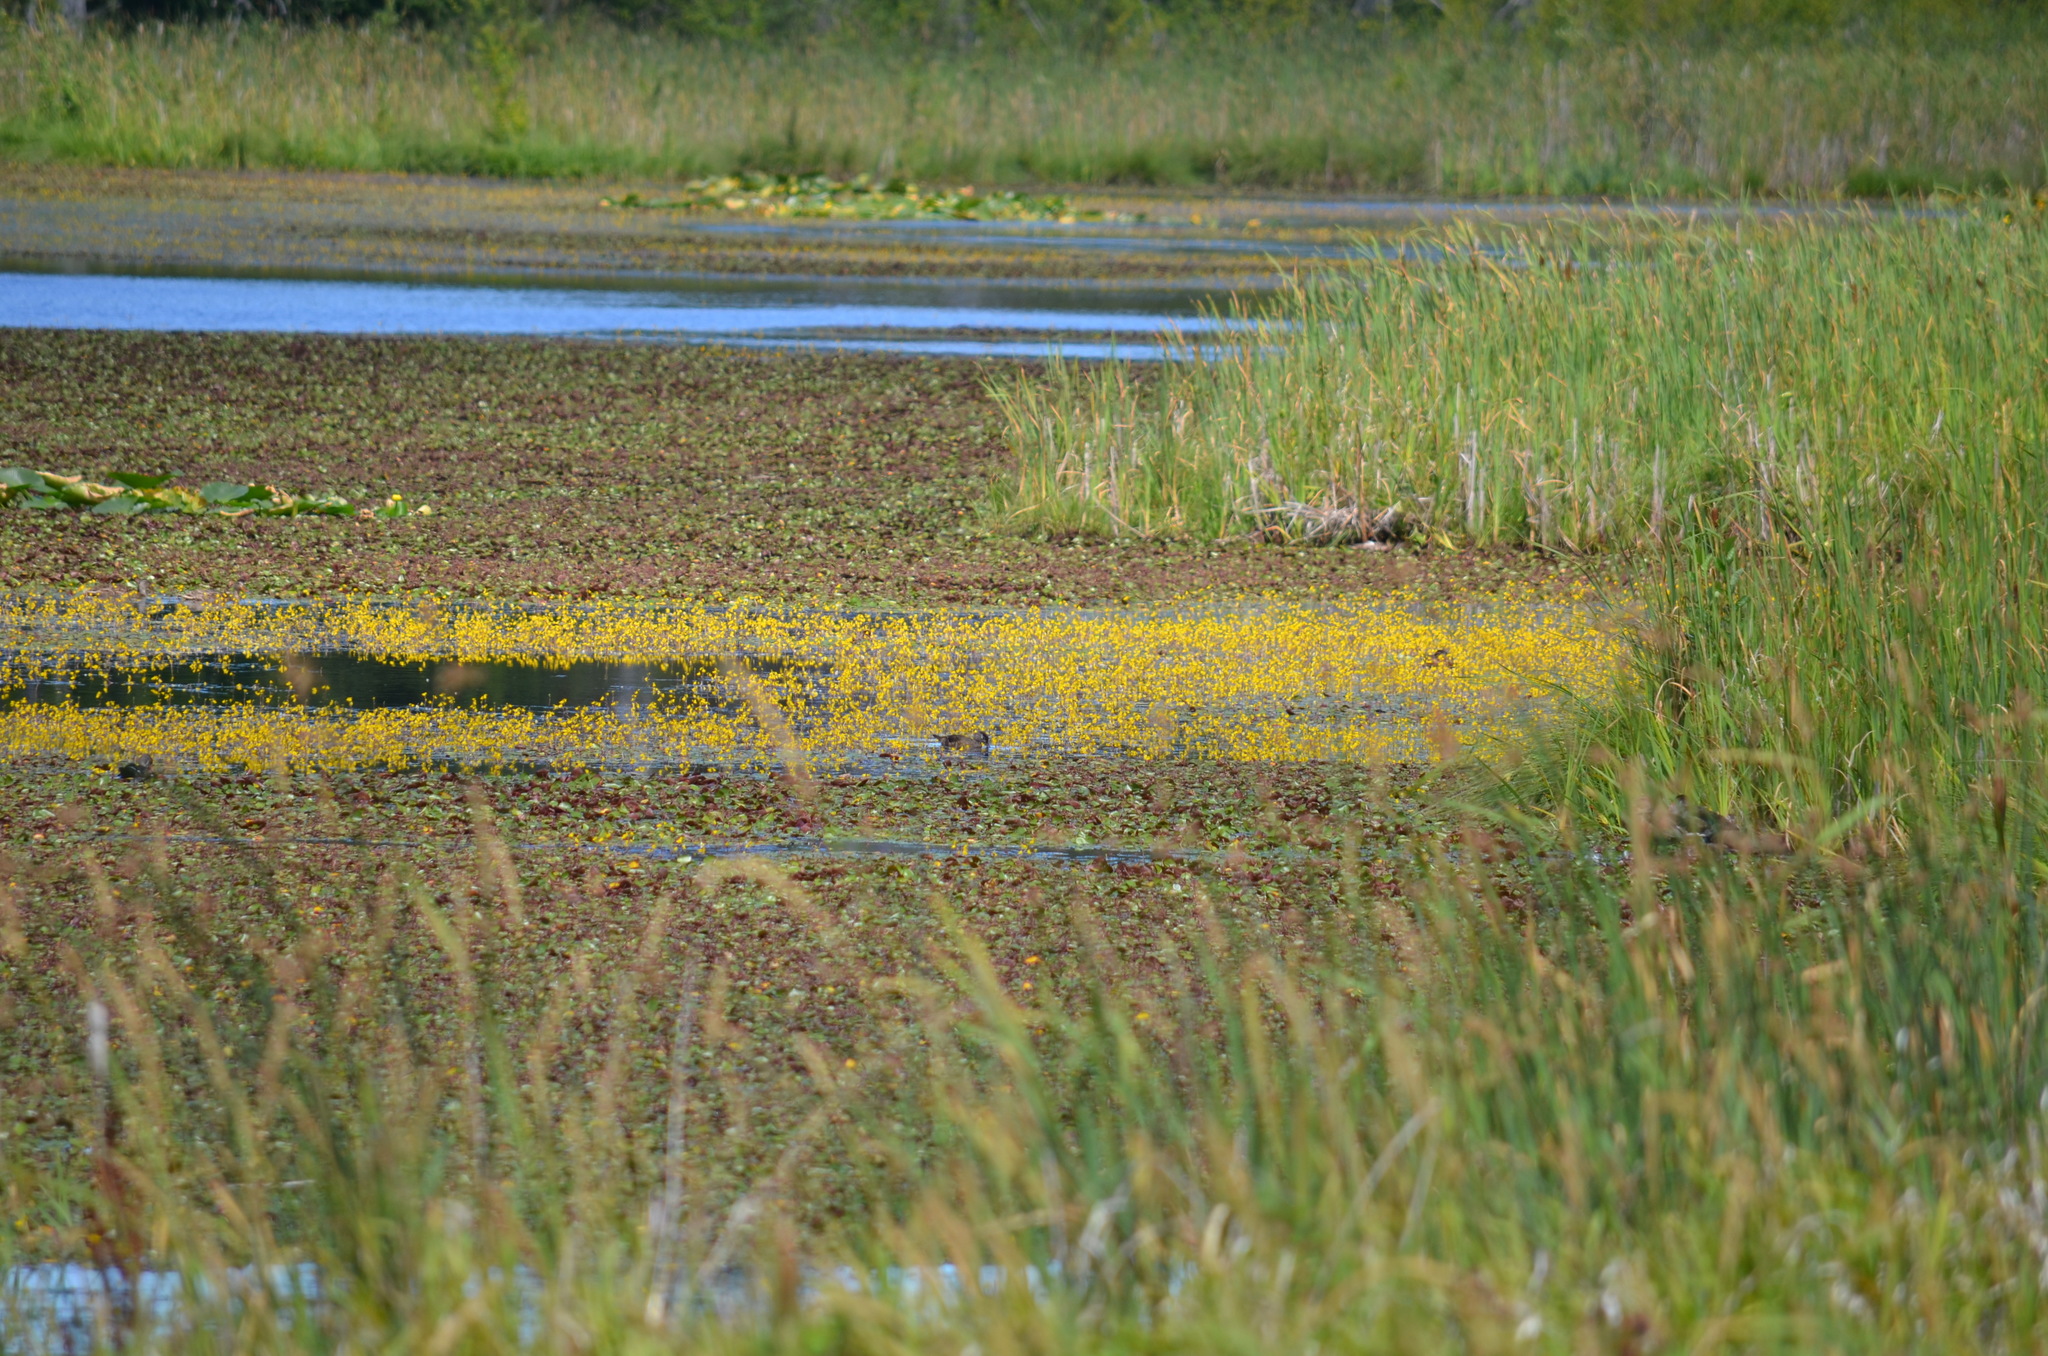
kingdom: Animalia
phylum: Chordata
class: Aves
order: Anseriformes
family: Anatidae
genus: Aix
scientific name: Aix sponsa
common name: Wood duck
